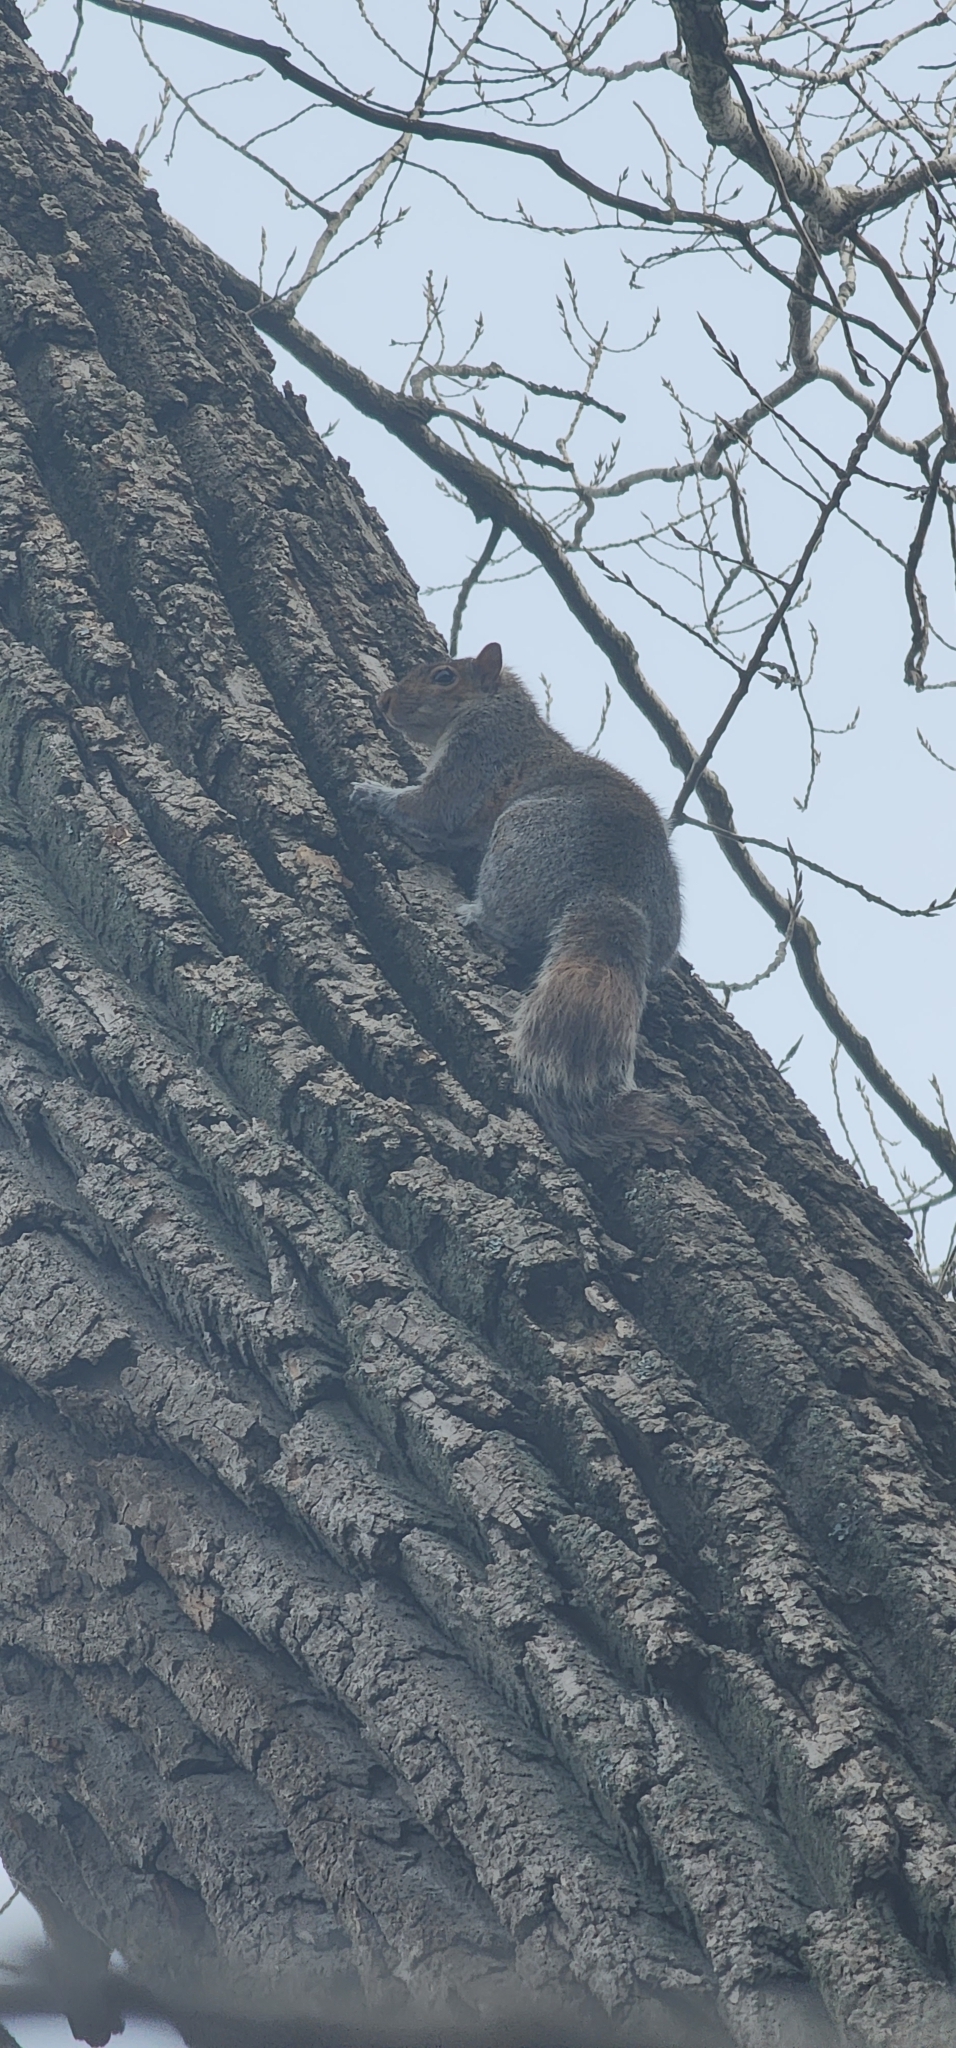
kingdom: Animalia
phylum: Chordata
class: Mammalia
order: Rodentia
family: Sciuridae
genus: Sciurus
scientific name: Sciurus carolinensis
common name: Eastern gray squirrel
